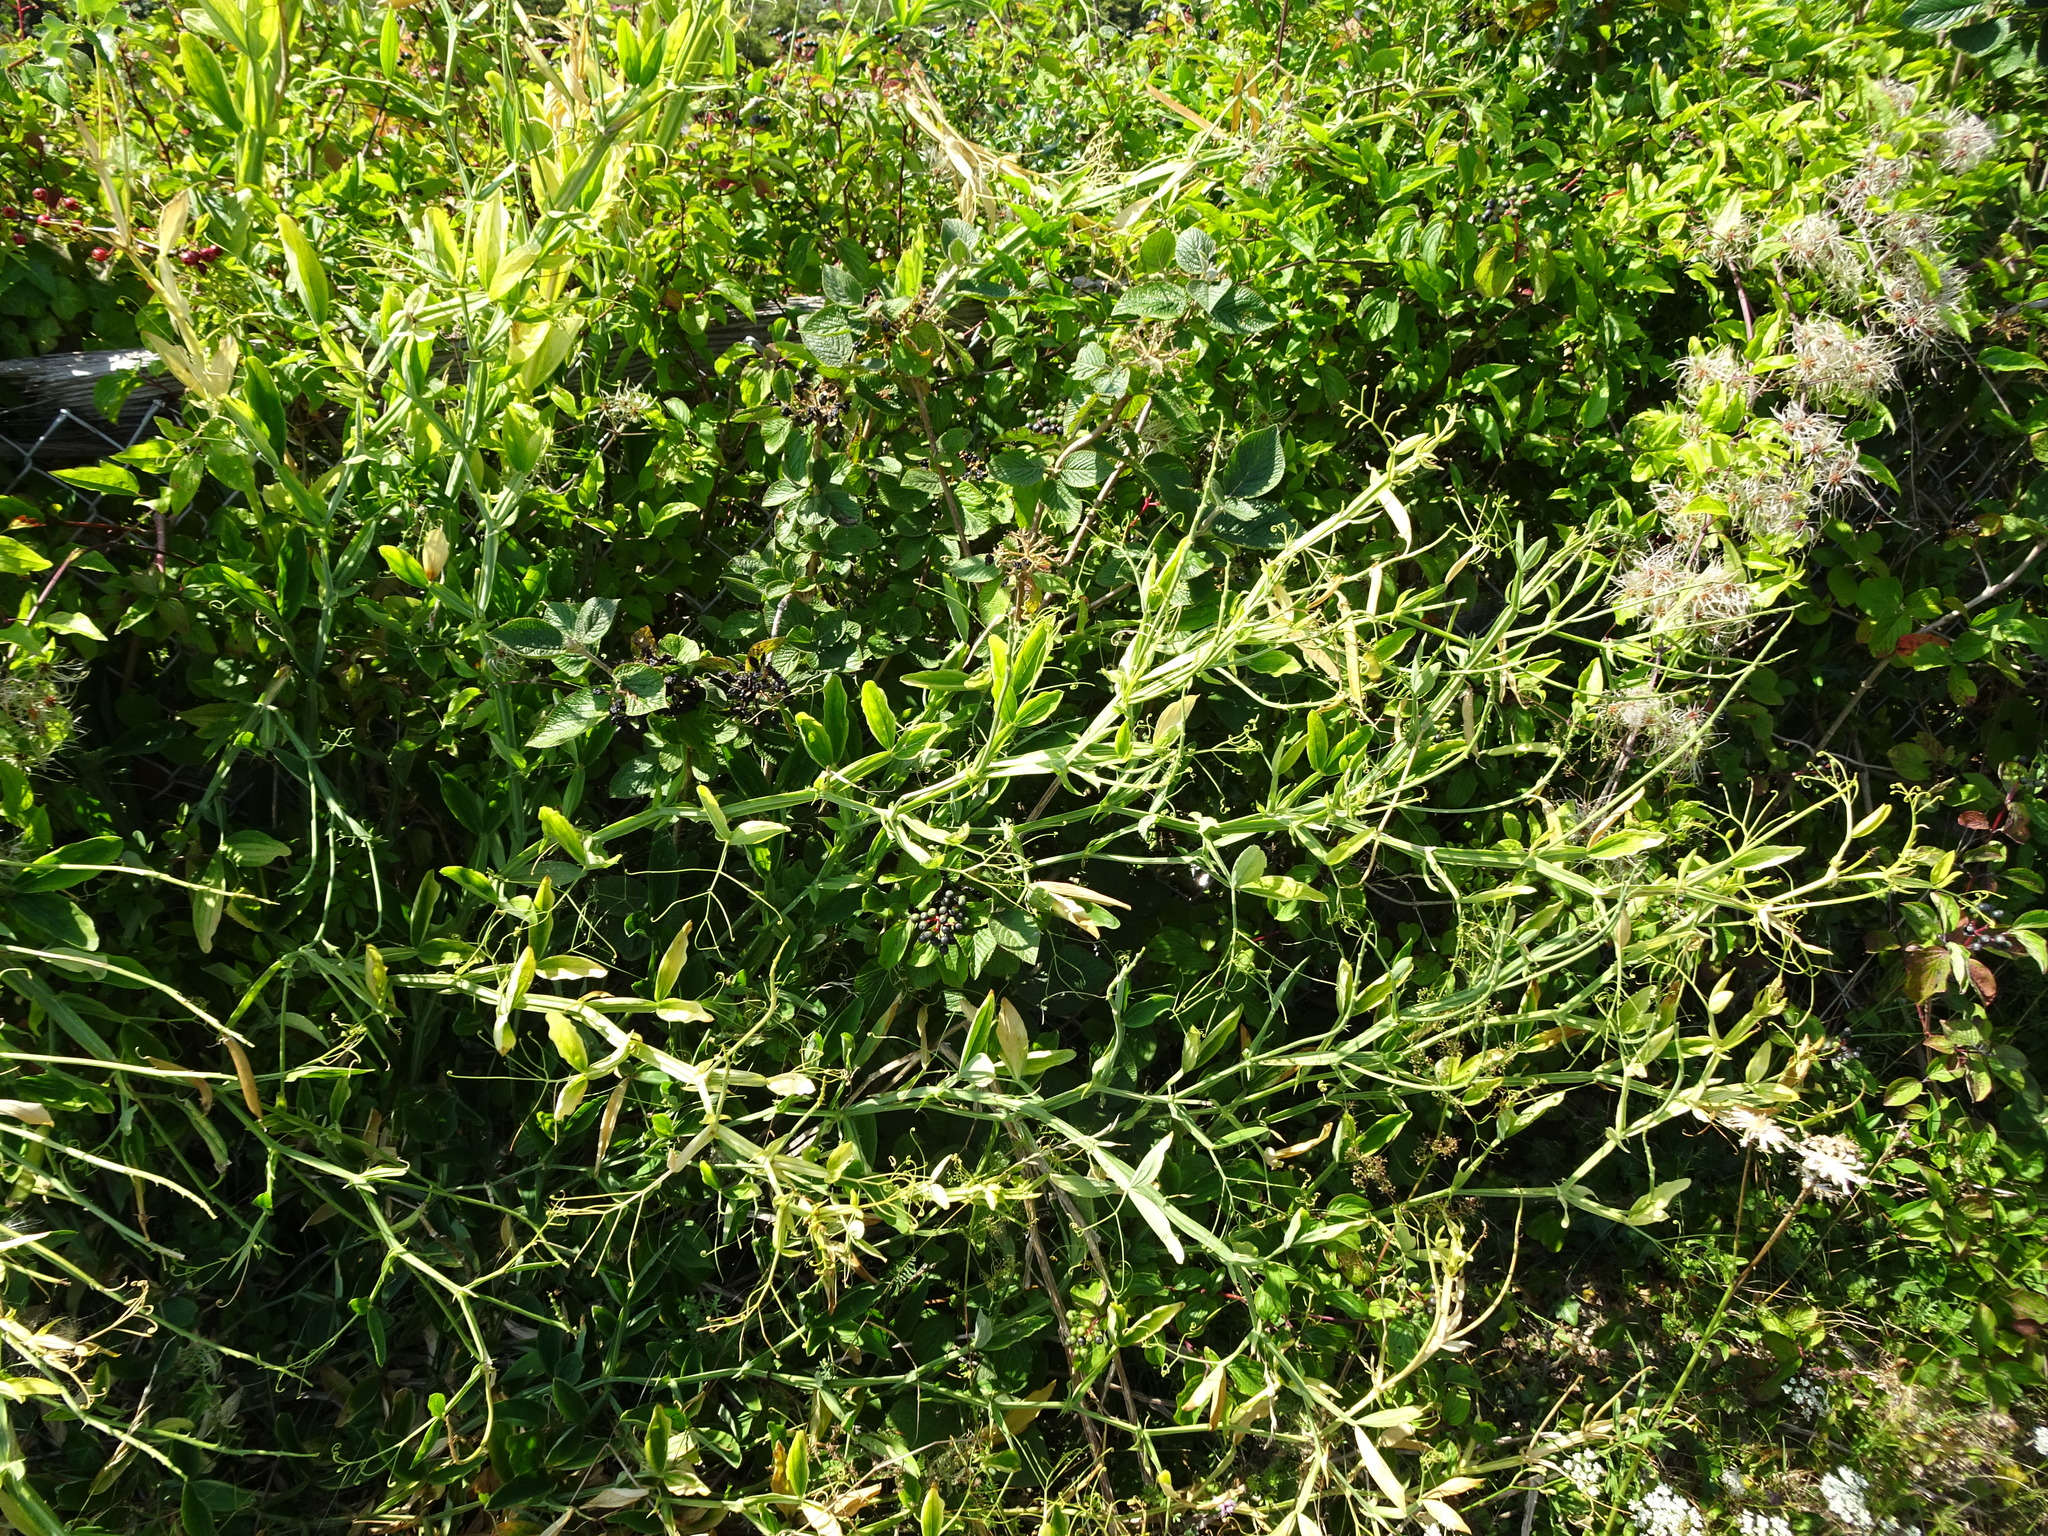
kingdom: Plantae
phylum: Tracheophyta
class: Magnoliopsida
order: Fabales
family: Fabaceae
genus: Lathyrus
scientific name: Lathyrus latifolius
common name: Perennial pea
